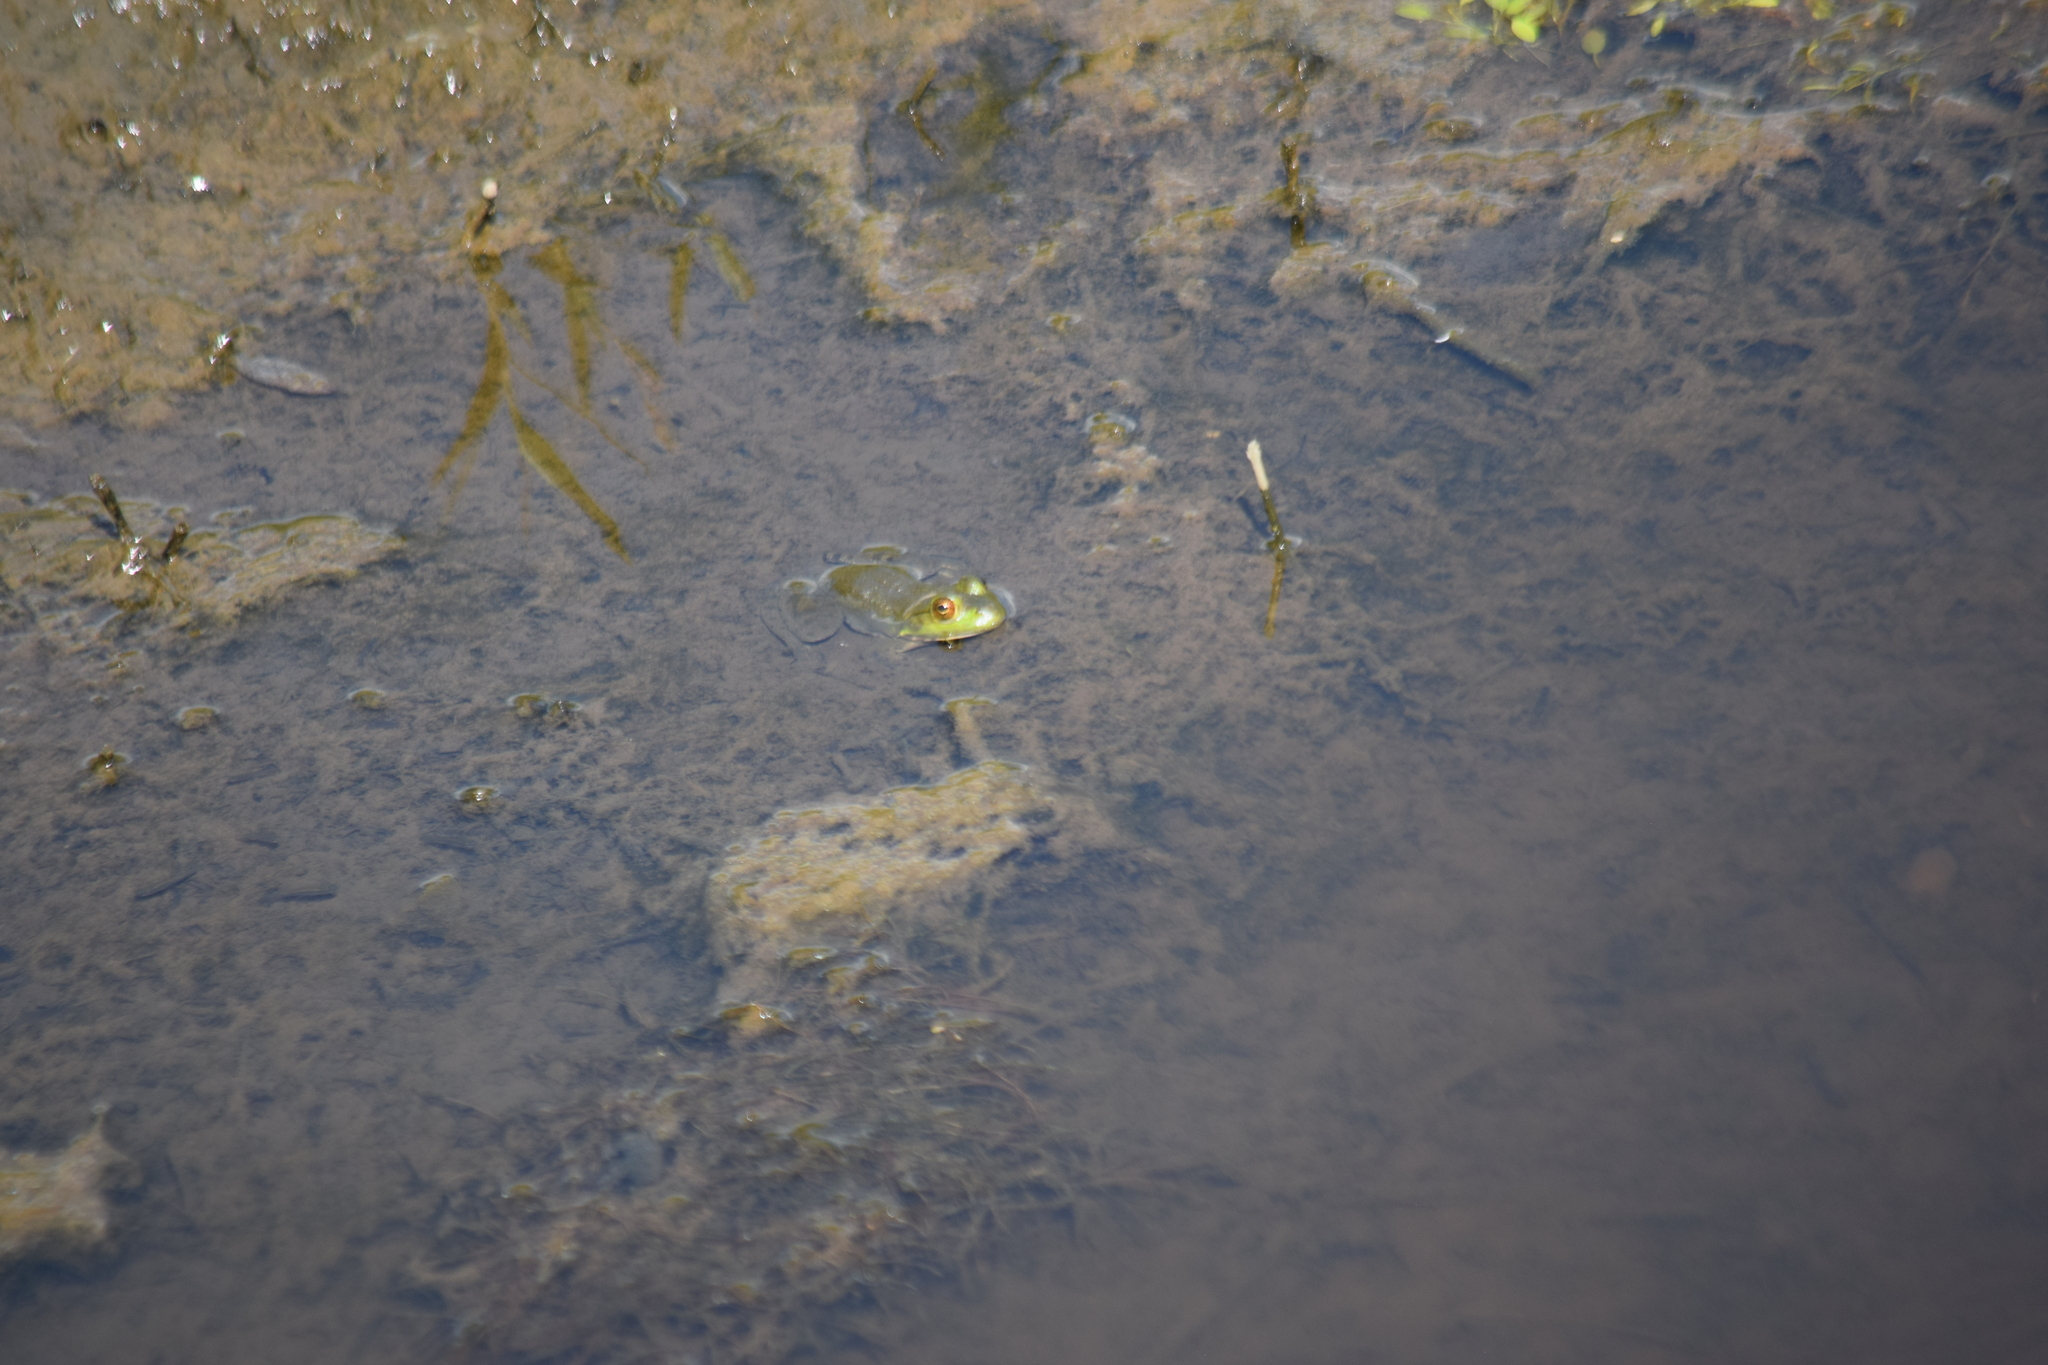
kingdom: Animalia
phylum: Chordata
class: Amphibia
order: Anura
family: Ranidae
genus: Lithobates
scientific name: Lithobates catesbeianus
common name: American bullfrog
